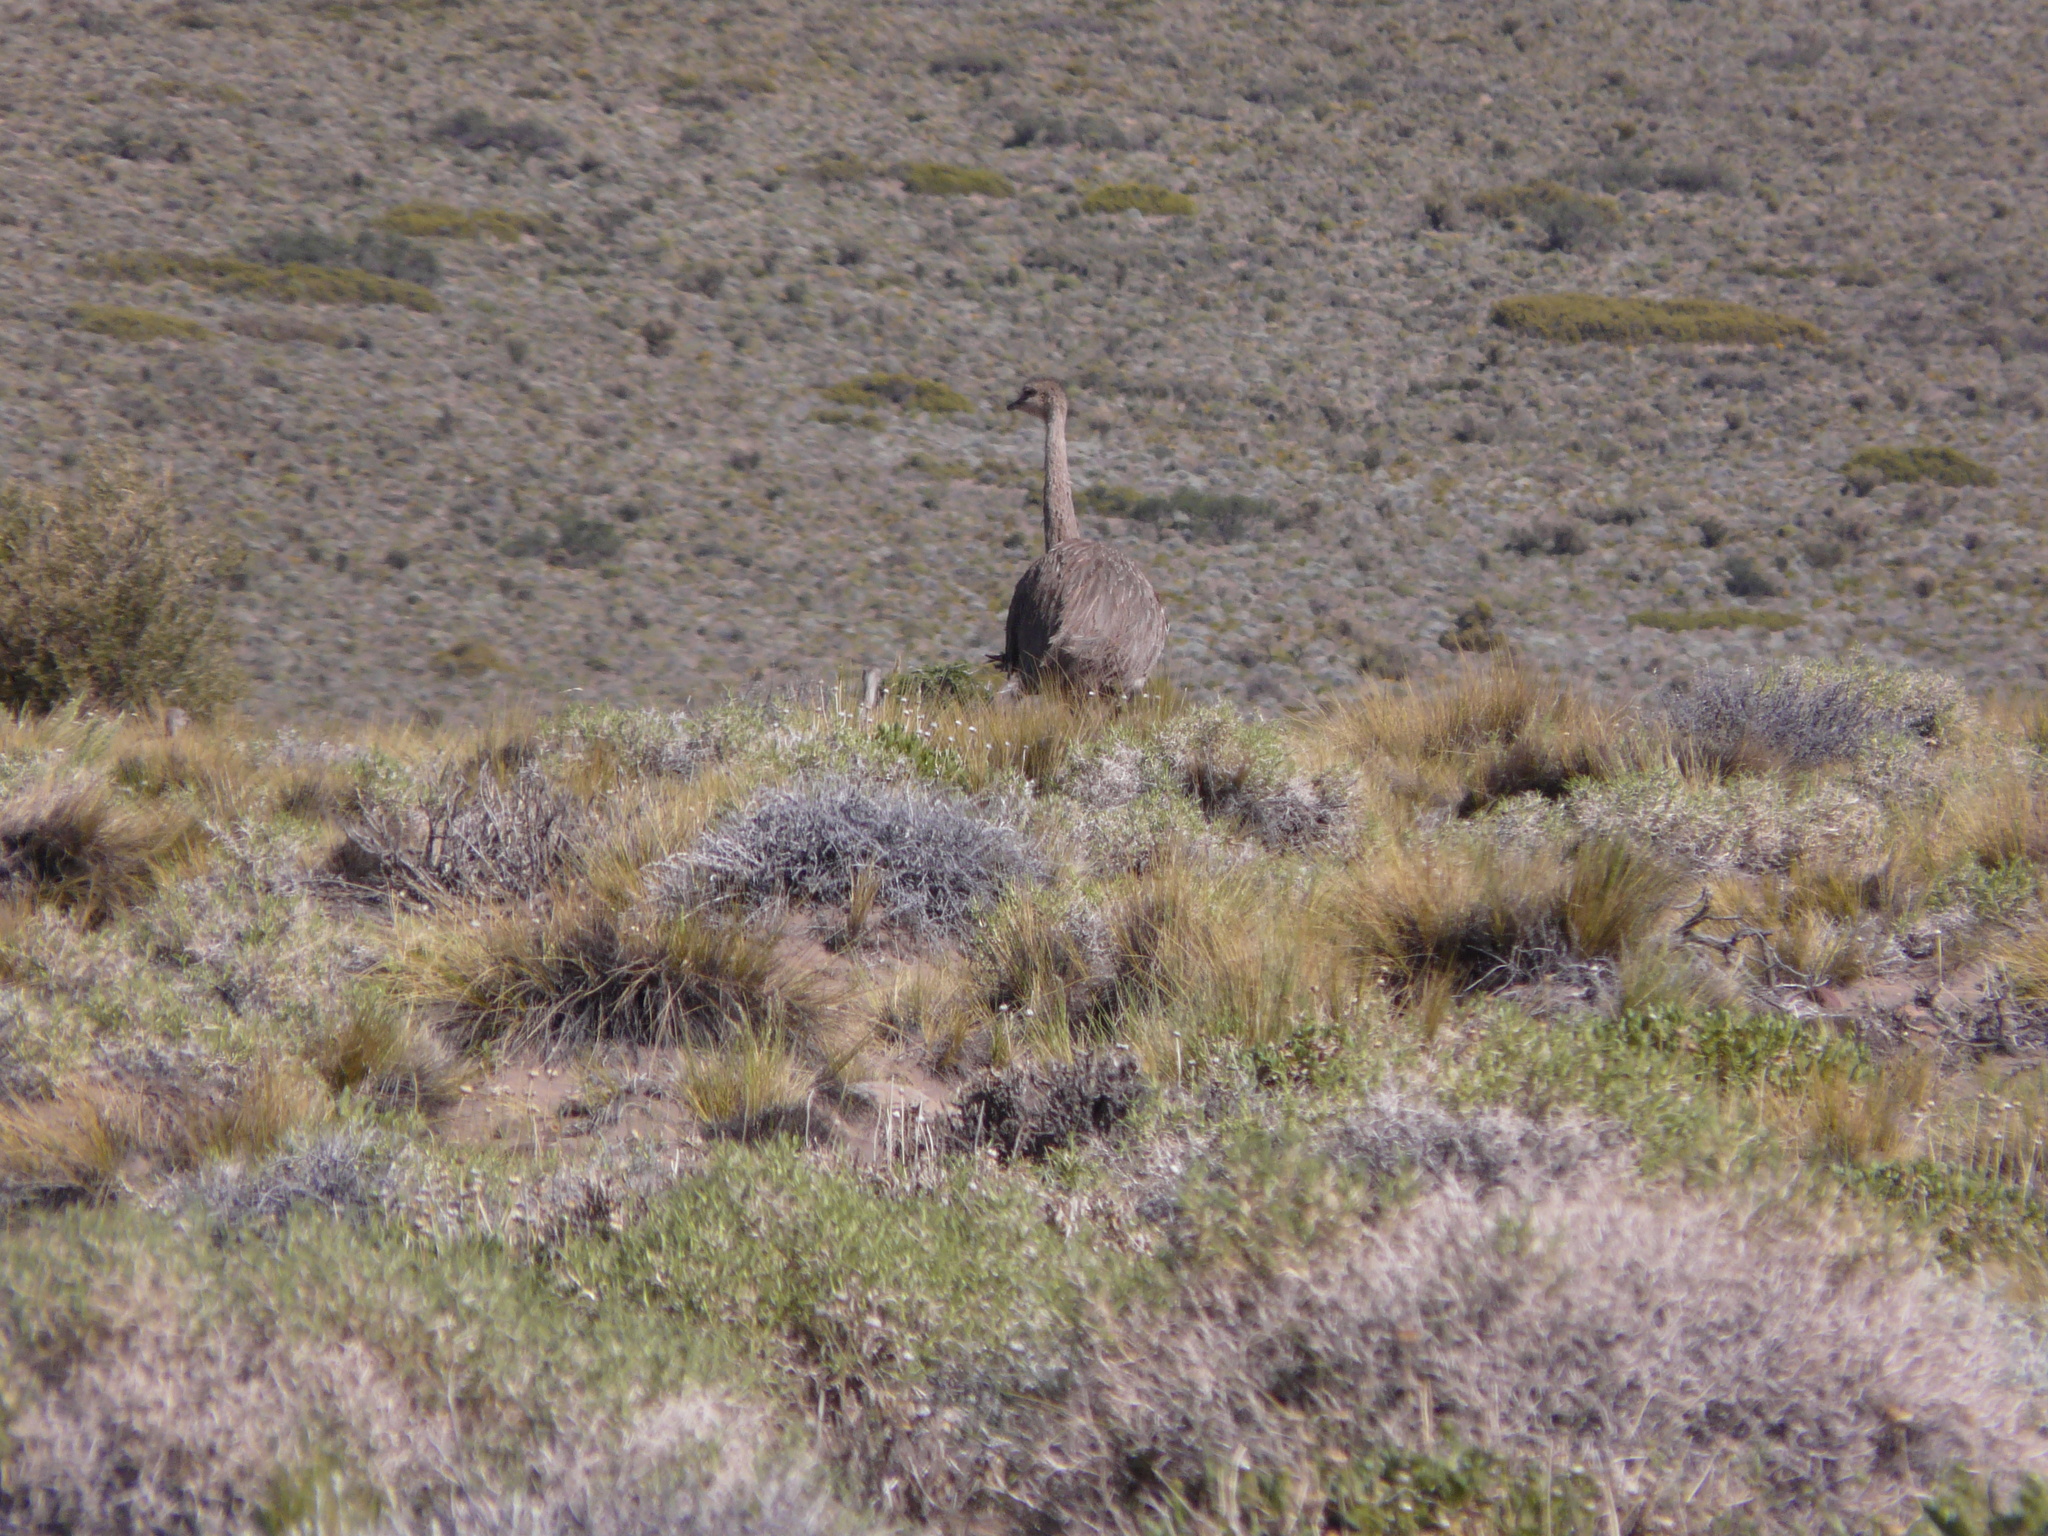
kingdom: Animalia
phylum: Chordata
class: Aves
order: Rheiformes
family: Rheidae
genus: Rhea
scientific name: Rhea pennata
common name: Lesser rhea
